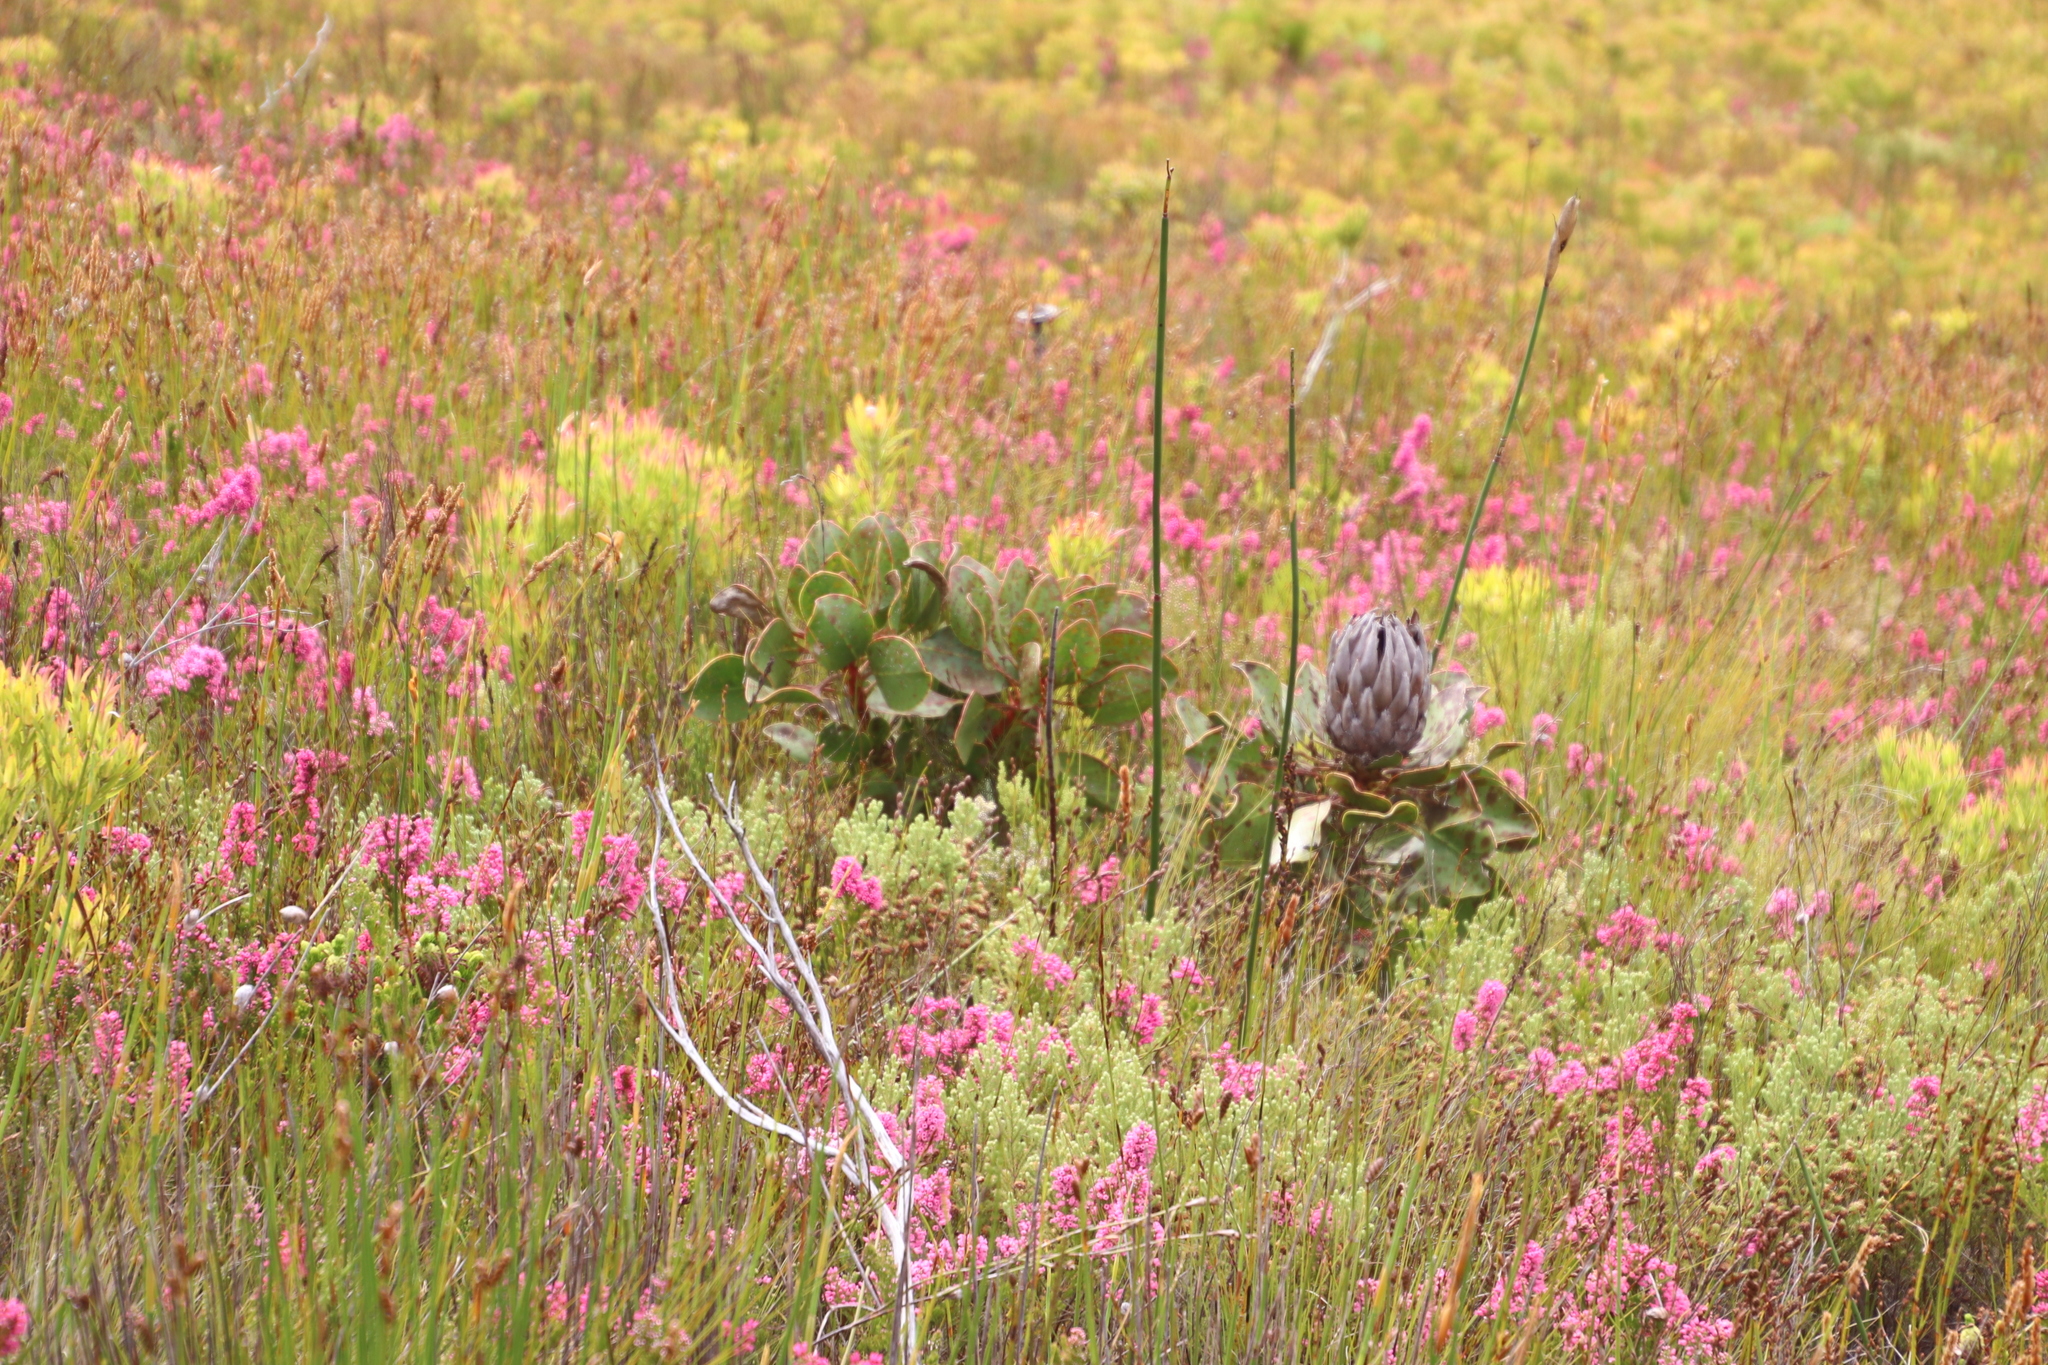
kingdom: Plantae
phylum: Tracheophyta
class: Magnoliopsida
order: Proteales
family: Proteaceae
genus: Protea
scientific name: Protea cynaroides
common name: King protea
